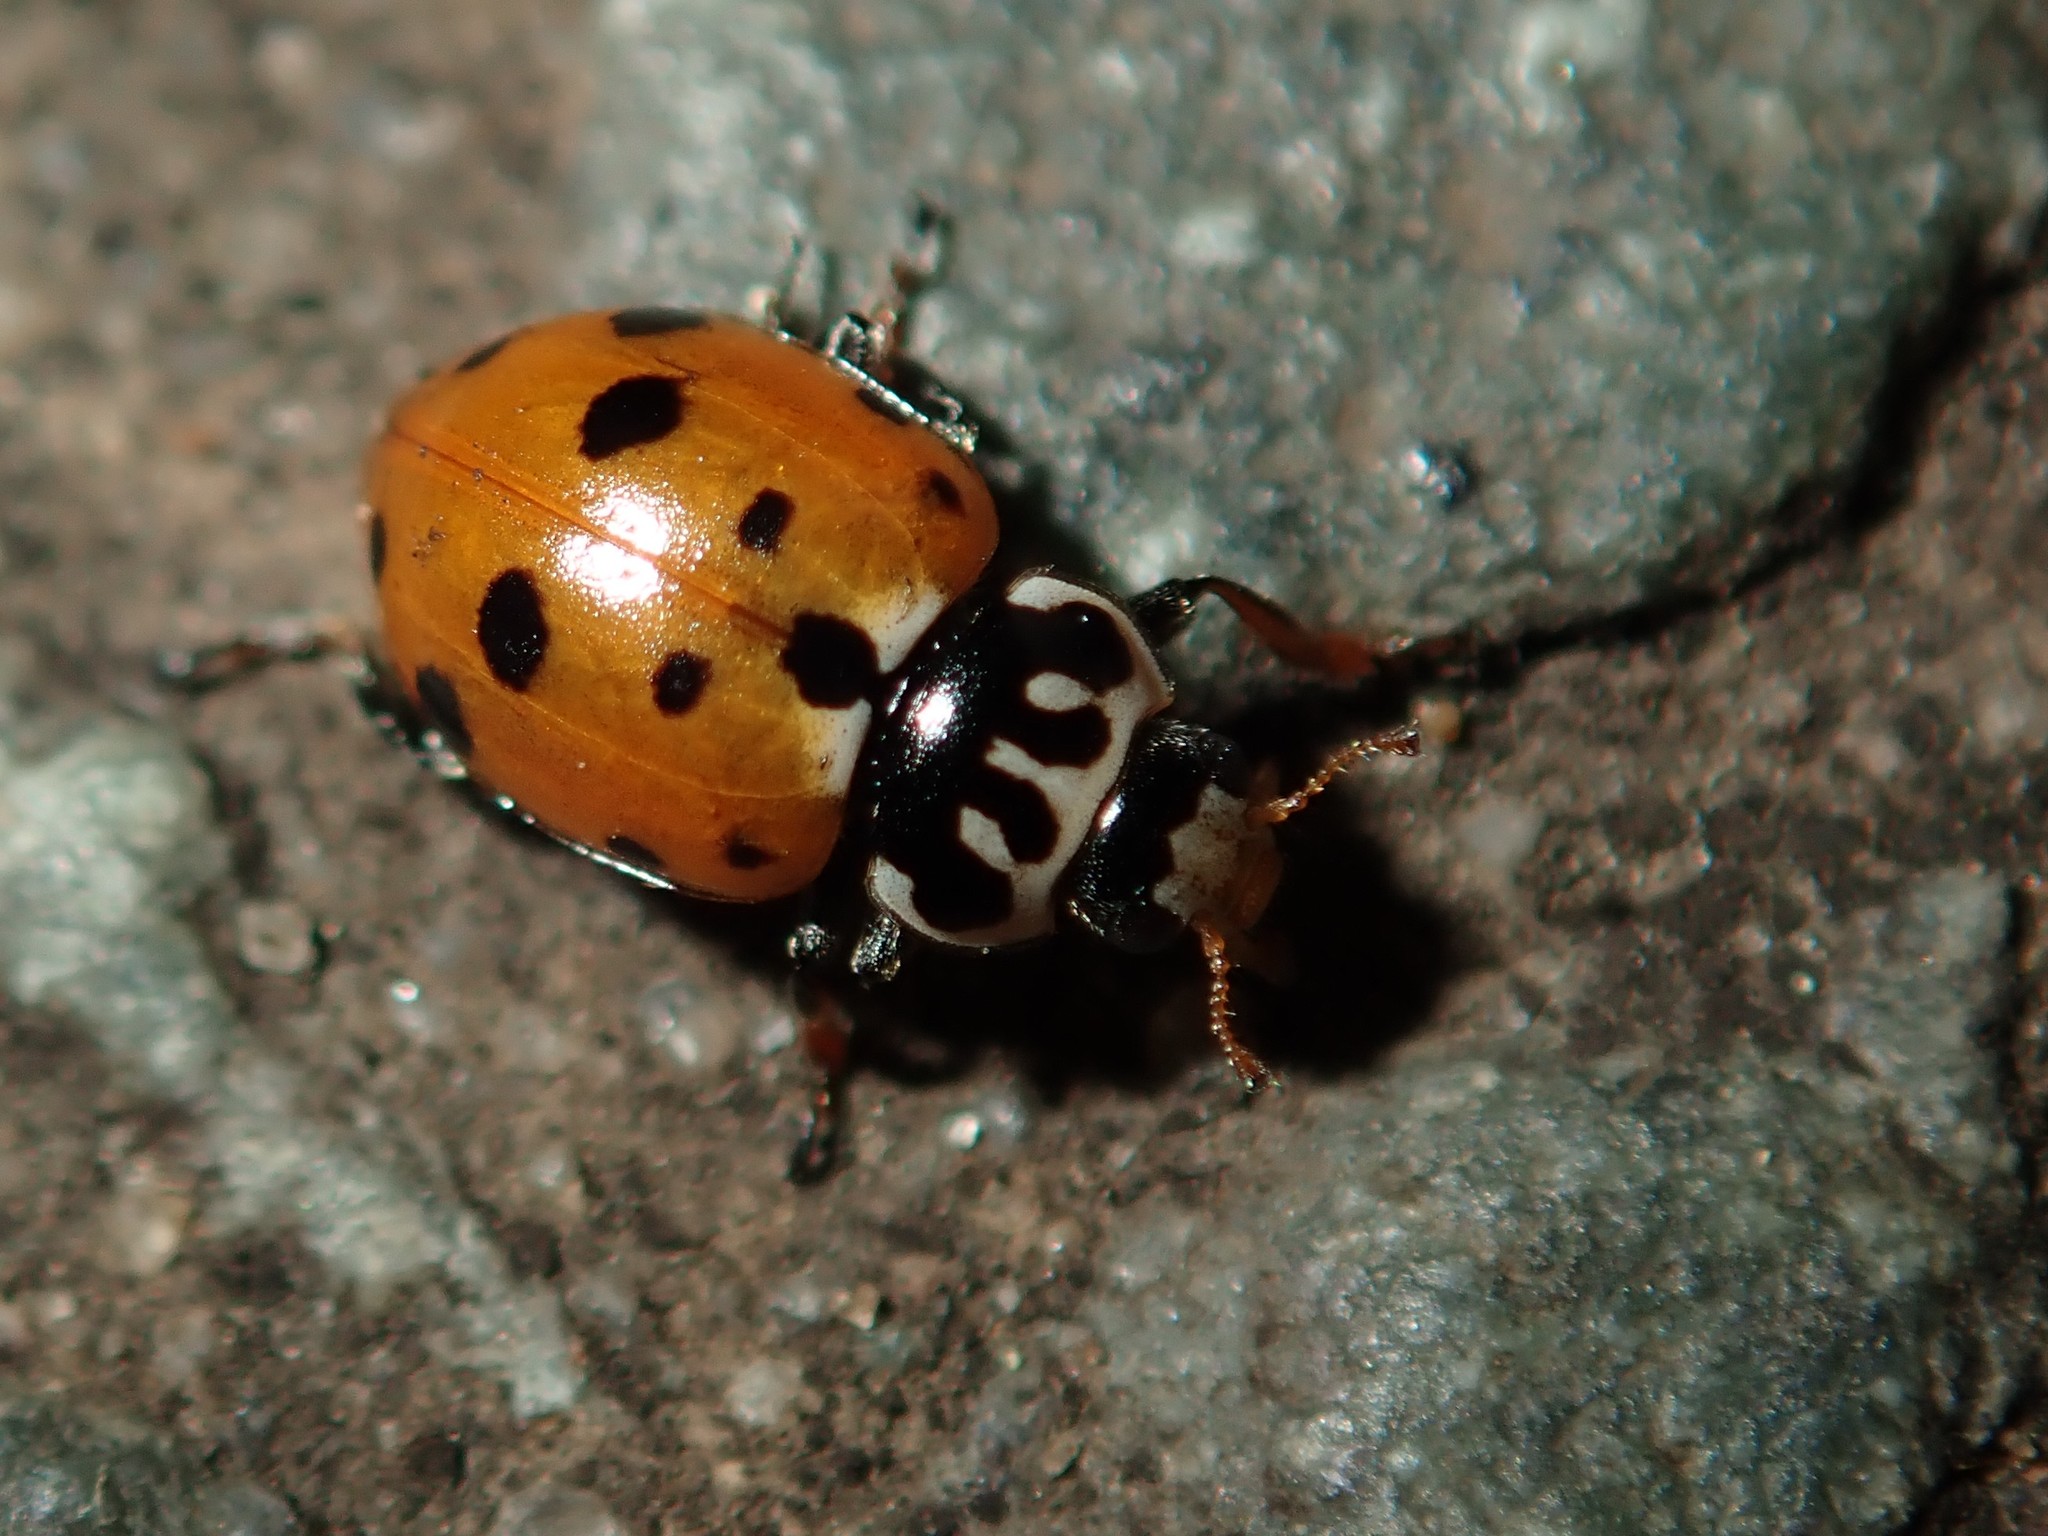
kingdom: Animalia
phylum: Arthropoda
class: Insecta
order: Coleoptera
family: Coccinellidae
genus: Hippodamia
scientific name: Hippodamia variegata
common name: Ladybird beetle
